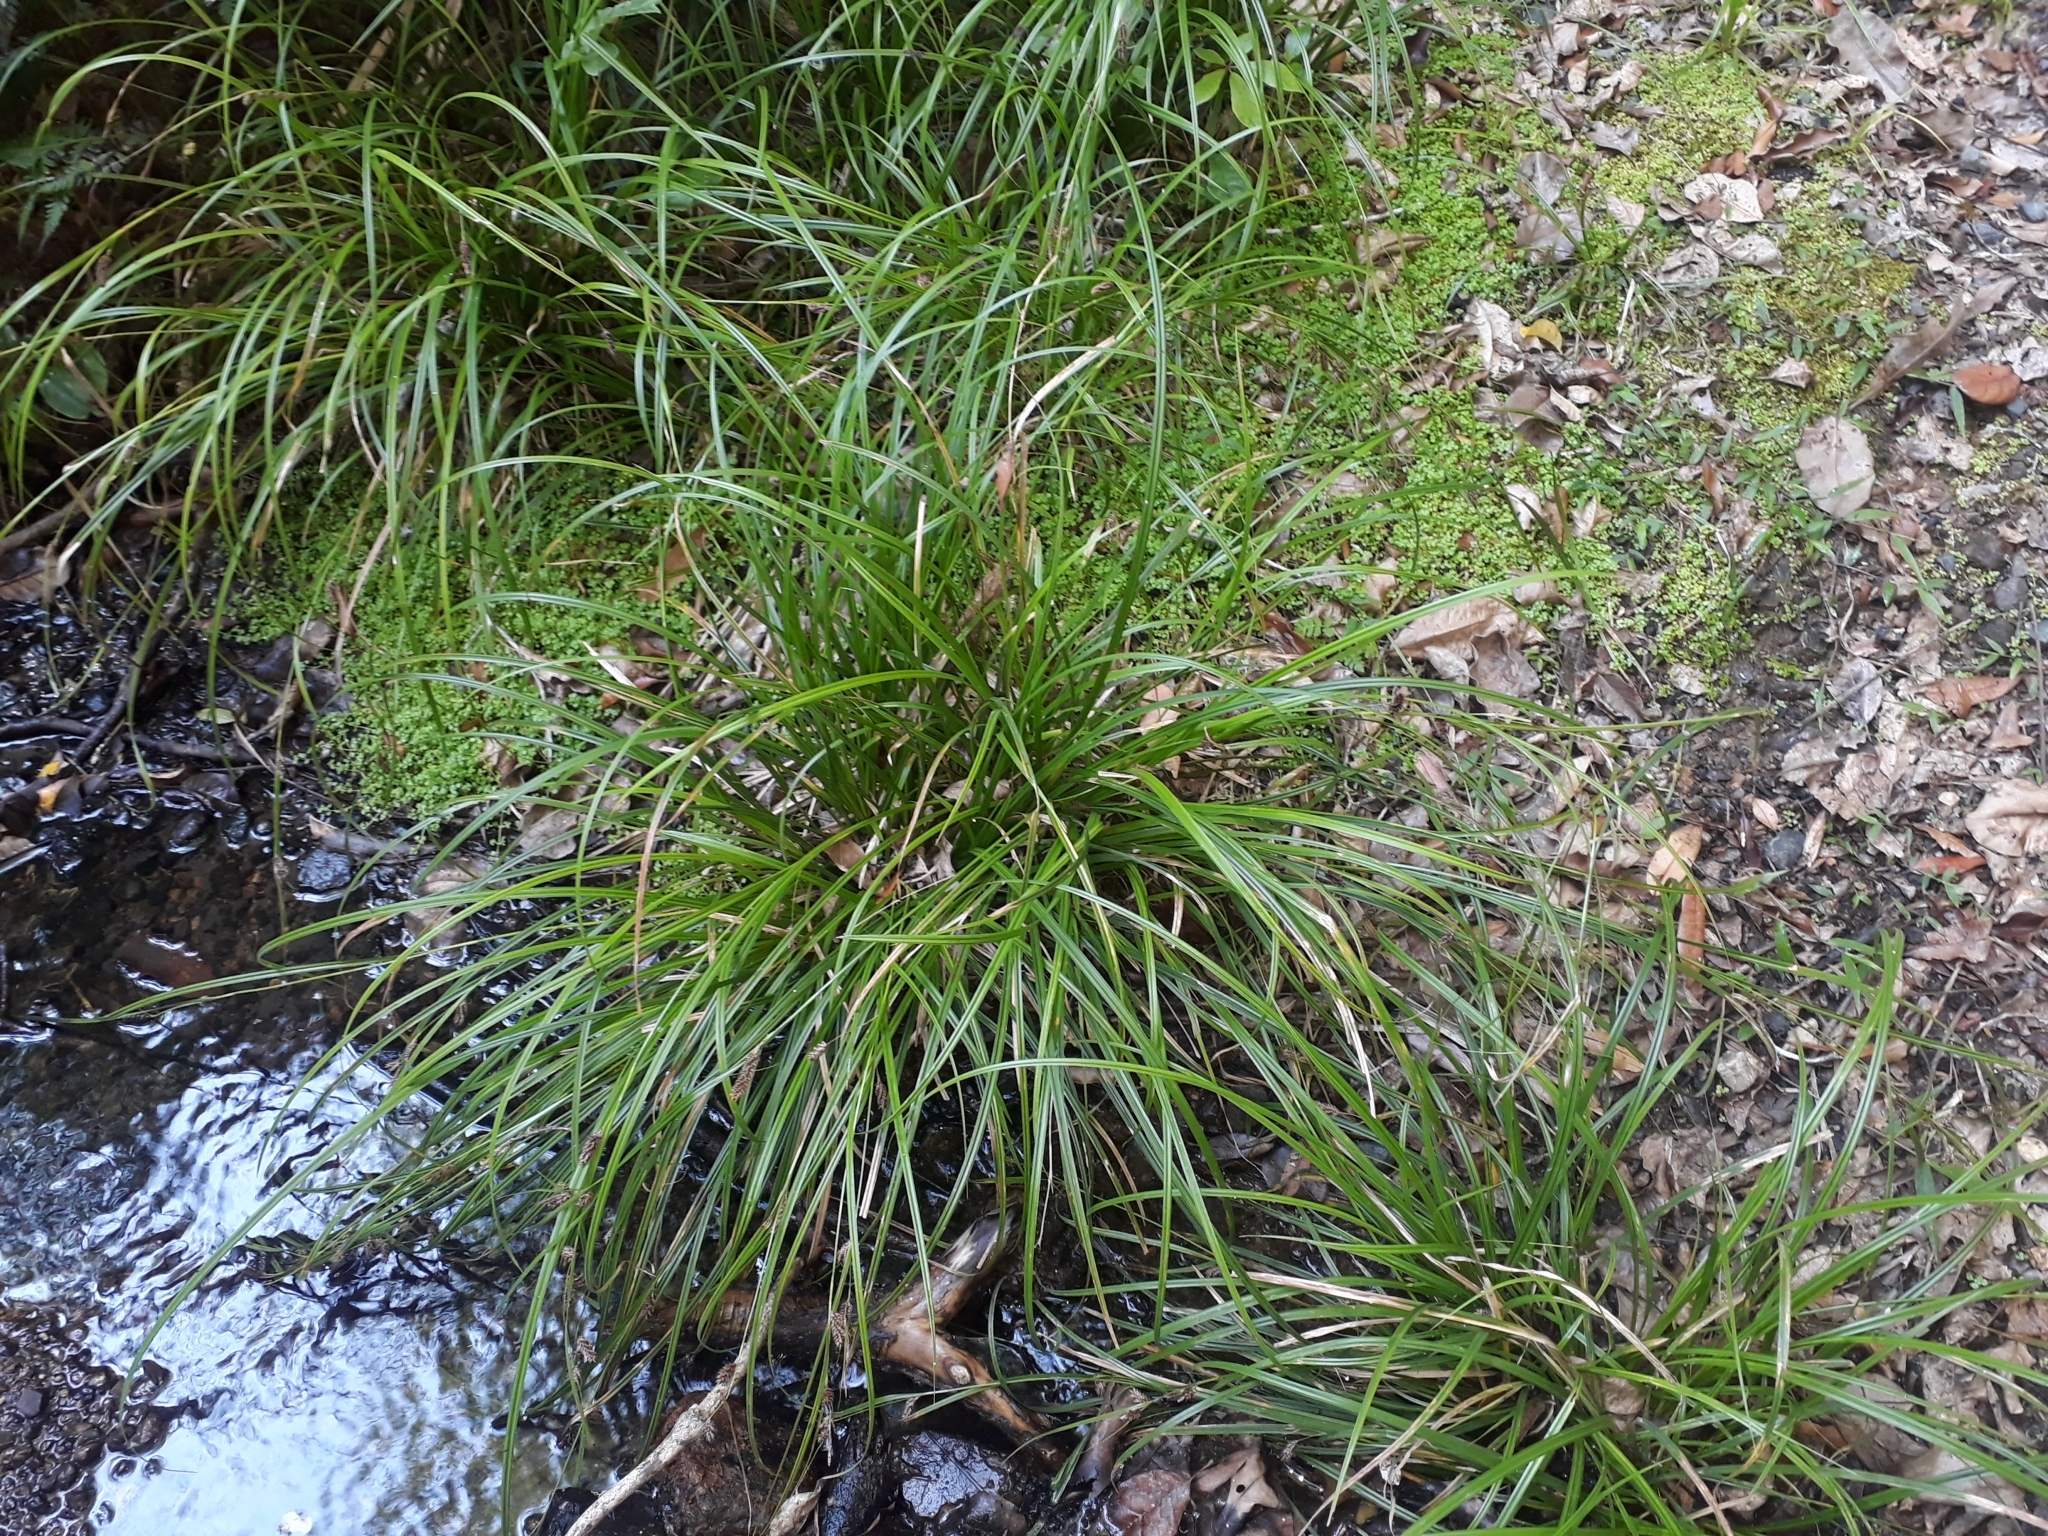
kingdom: Plantae
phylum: Tracheophyta
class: Liliopsida
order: Poales
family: Cyperaceae
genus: Carex
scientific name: Carex ochrosaccus
